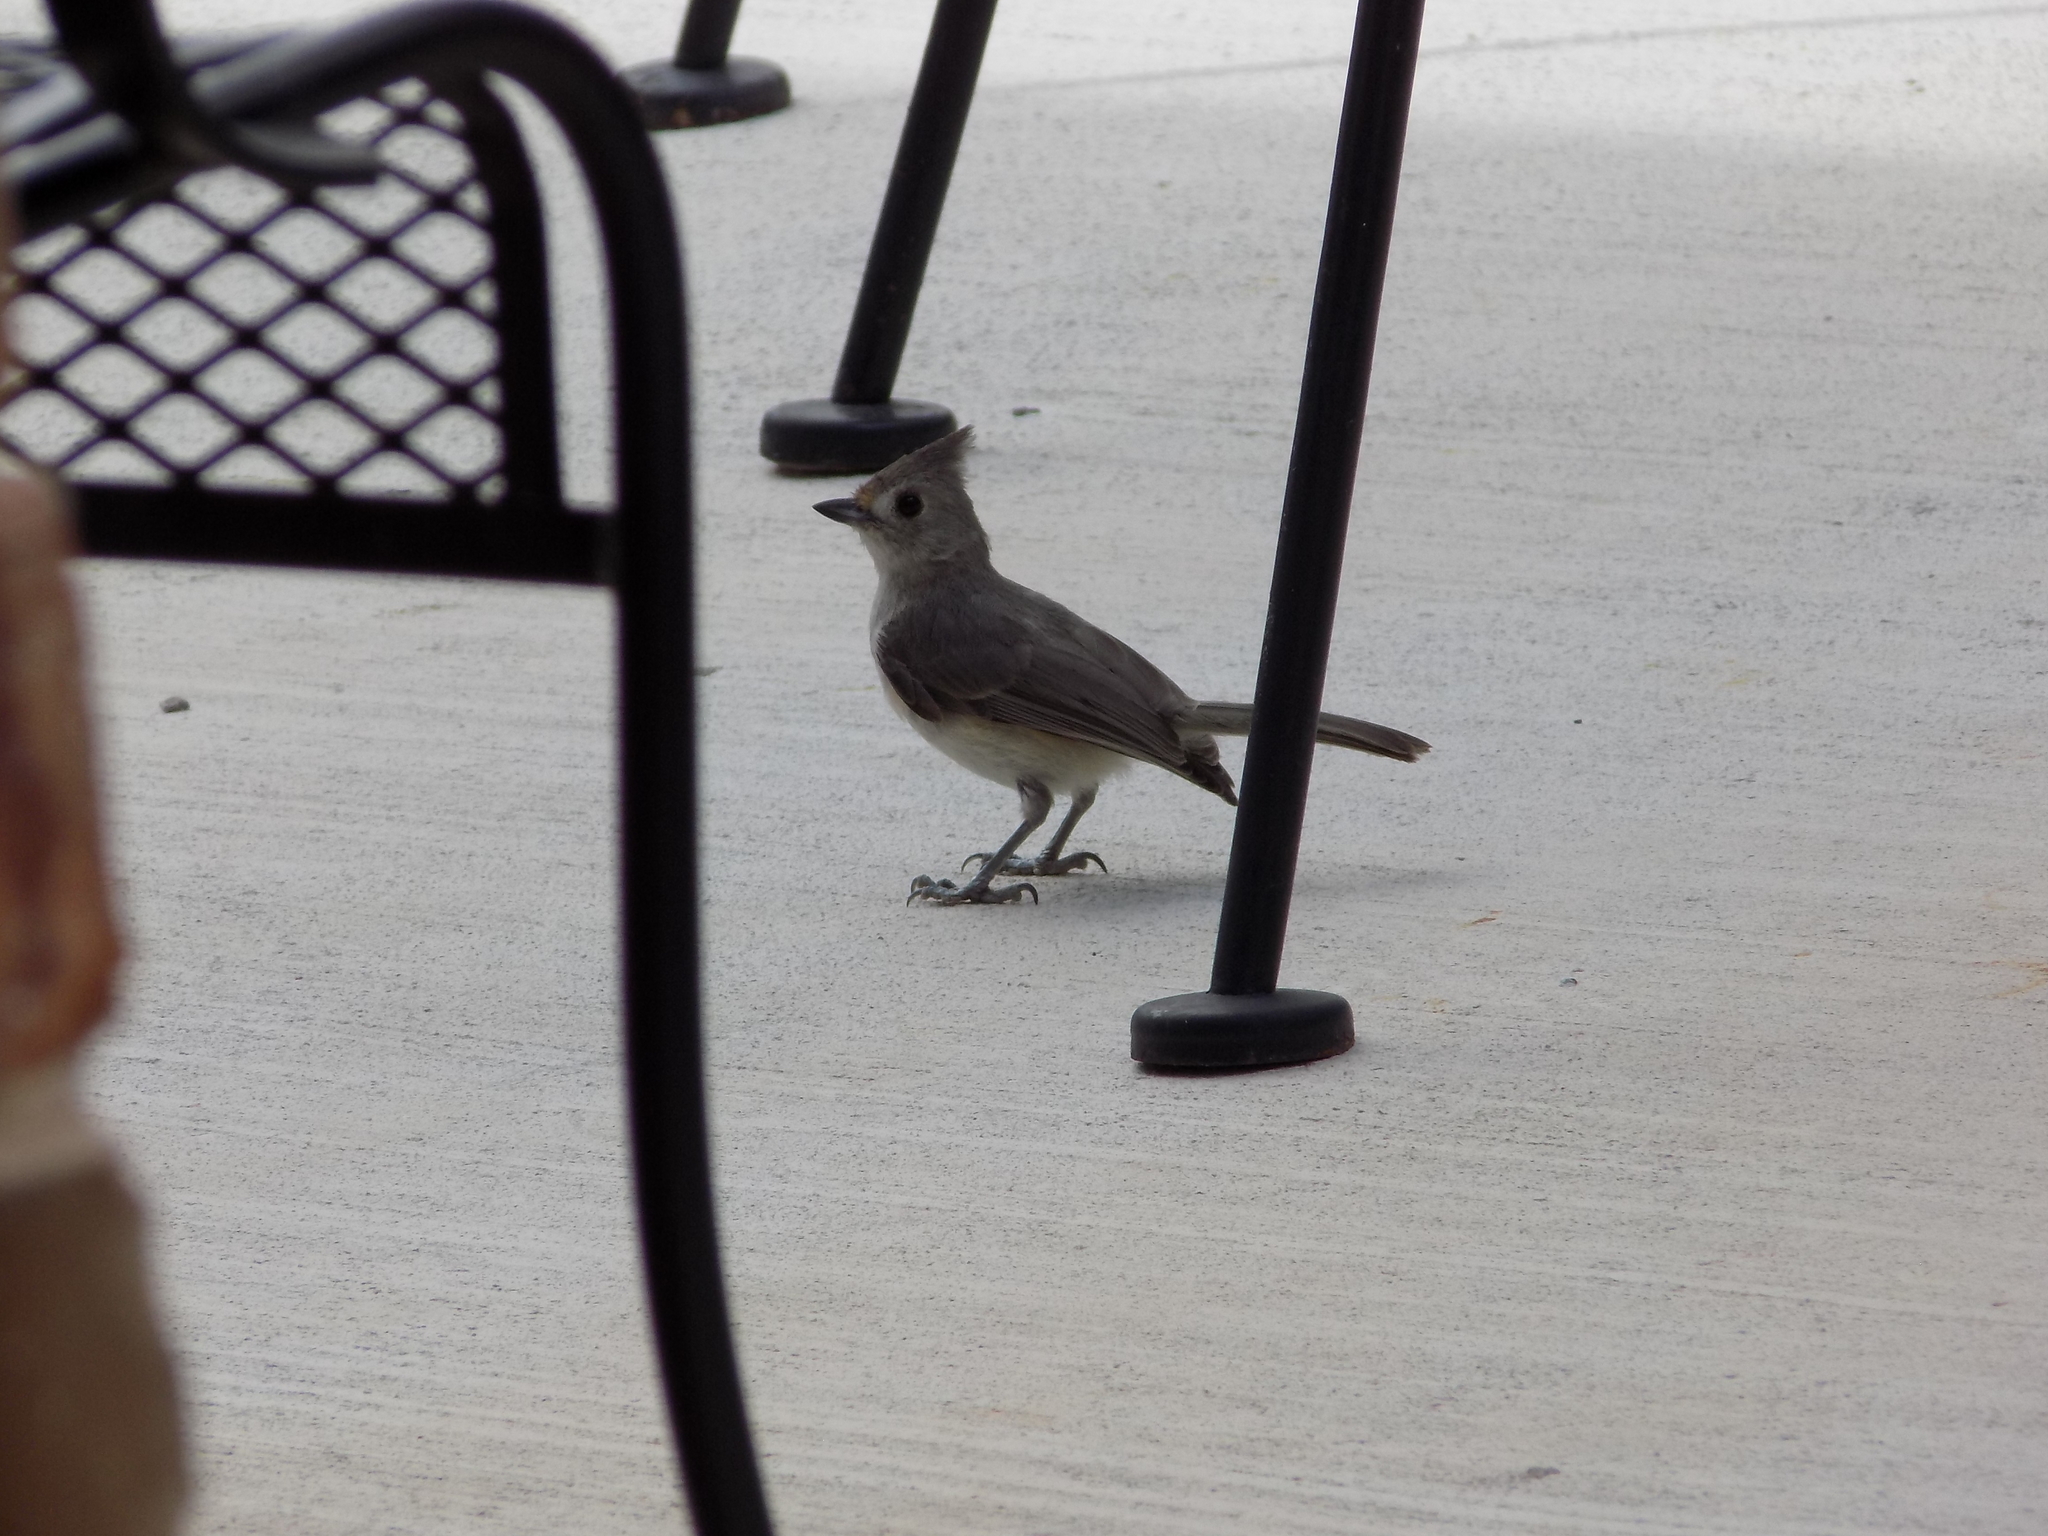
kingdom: Animalia
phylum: Chordata
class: Aves
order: Passeriformes
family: Paridae
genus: Baeolophus
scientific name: Baeolophus atricristatus
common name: Black-crested titmouse
